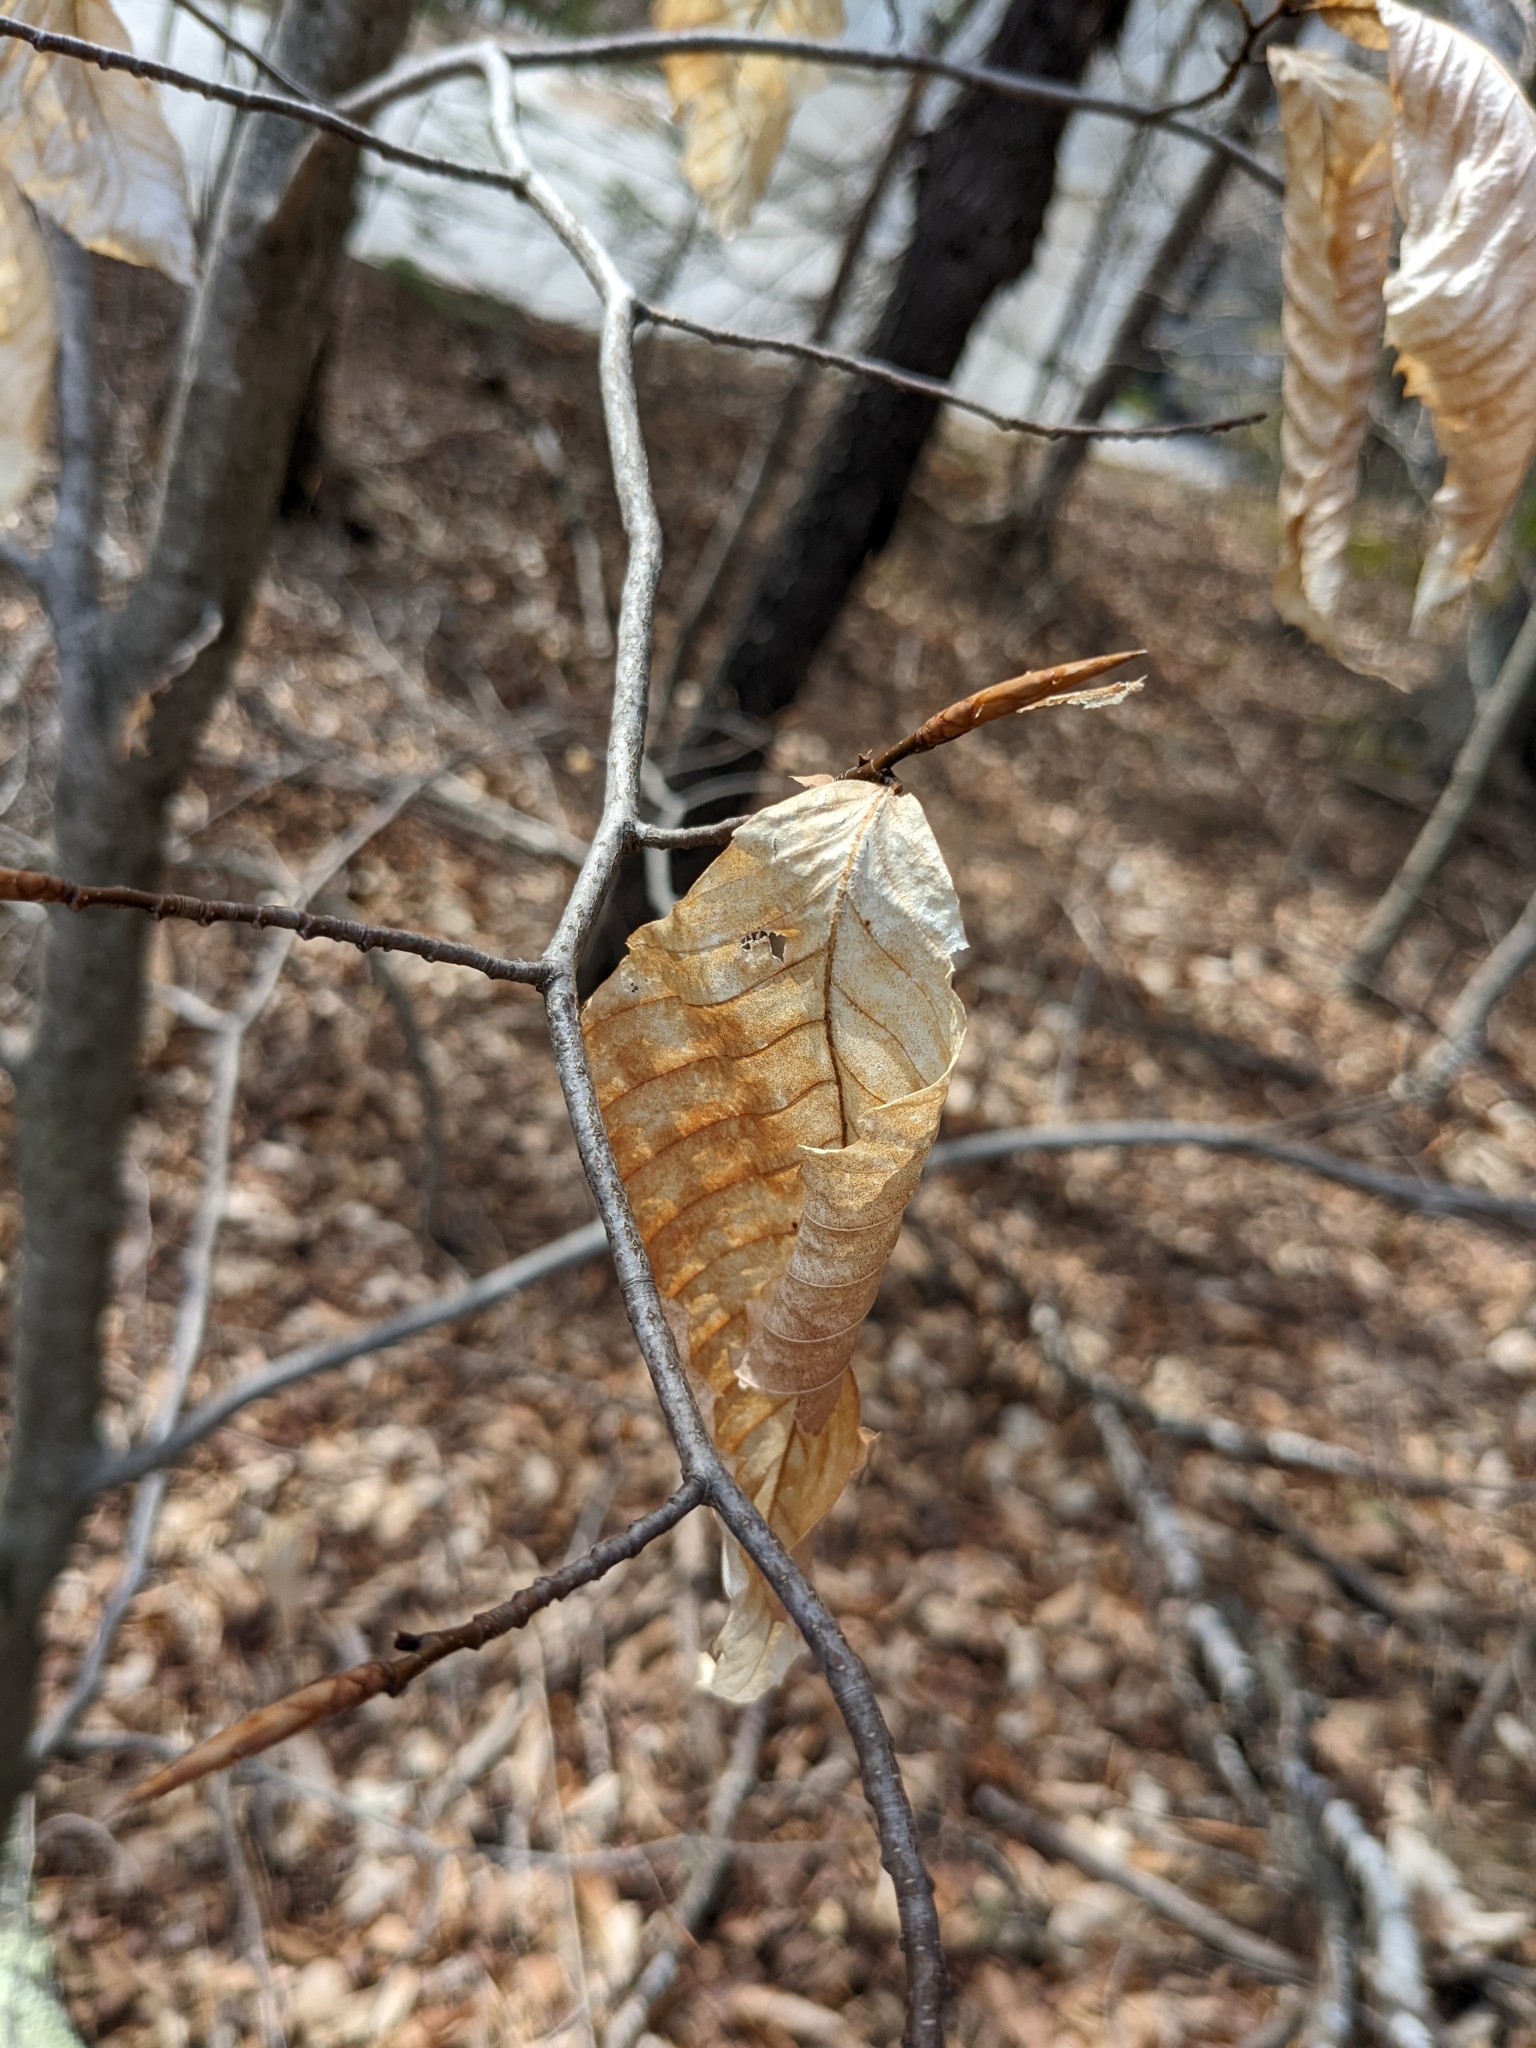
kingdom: Plantae
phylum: Tracheophyta
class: Magnoliopsida
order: Fagales
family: Fagaceae
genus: Fagus
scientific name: Fagus grandifolia
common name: American beech
